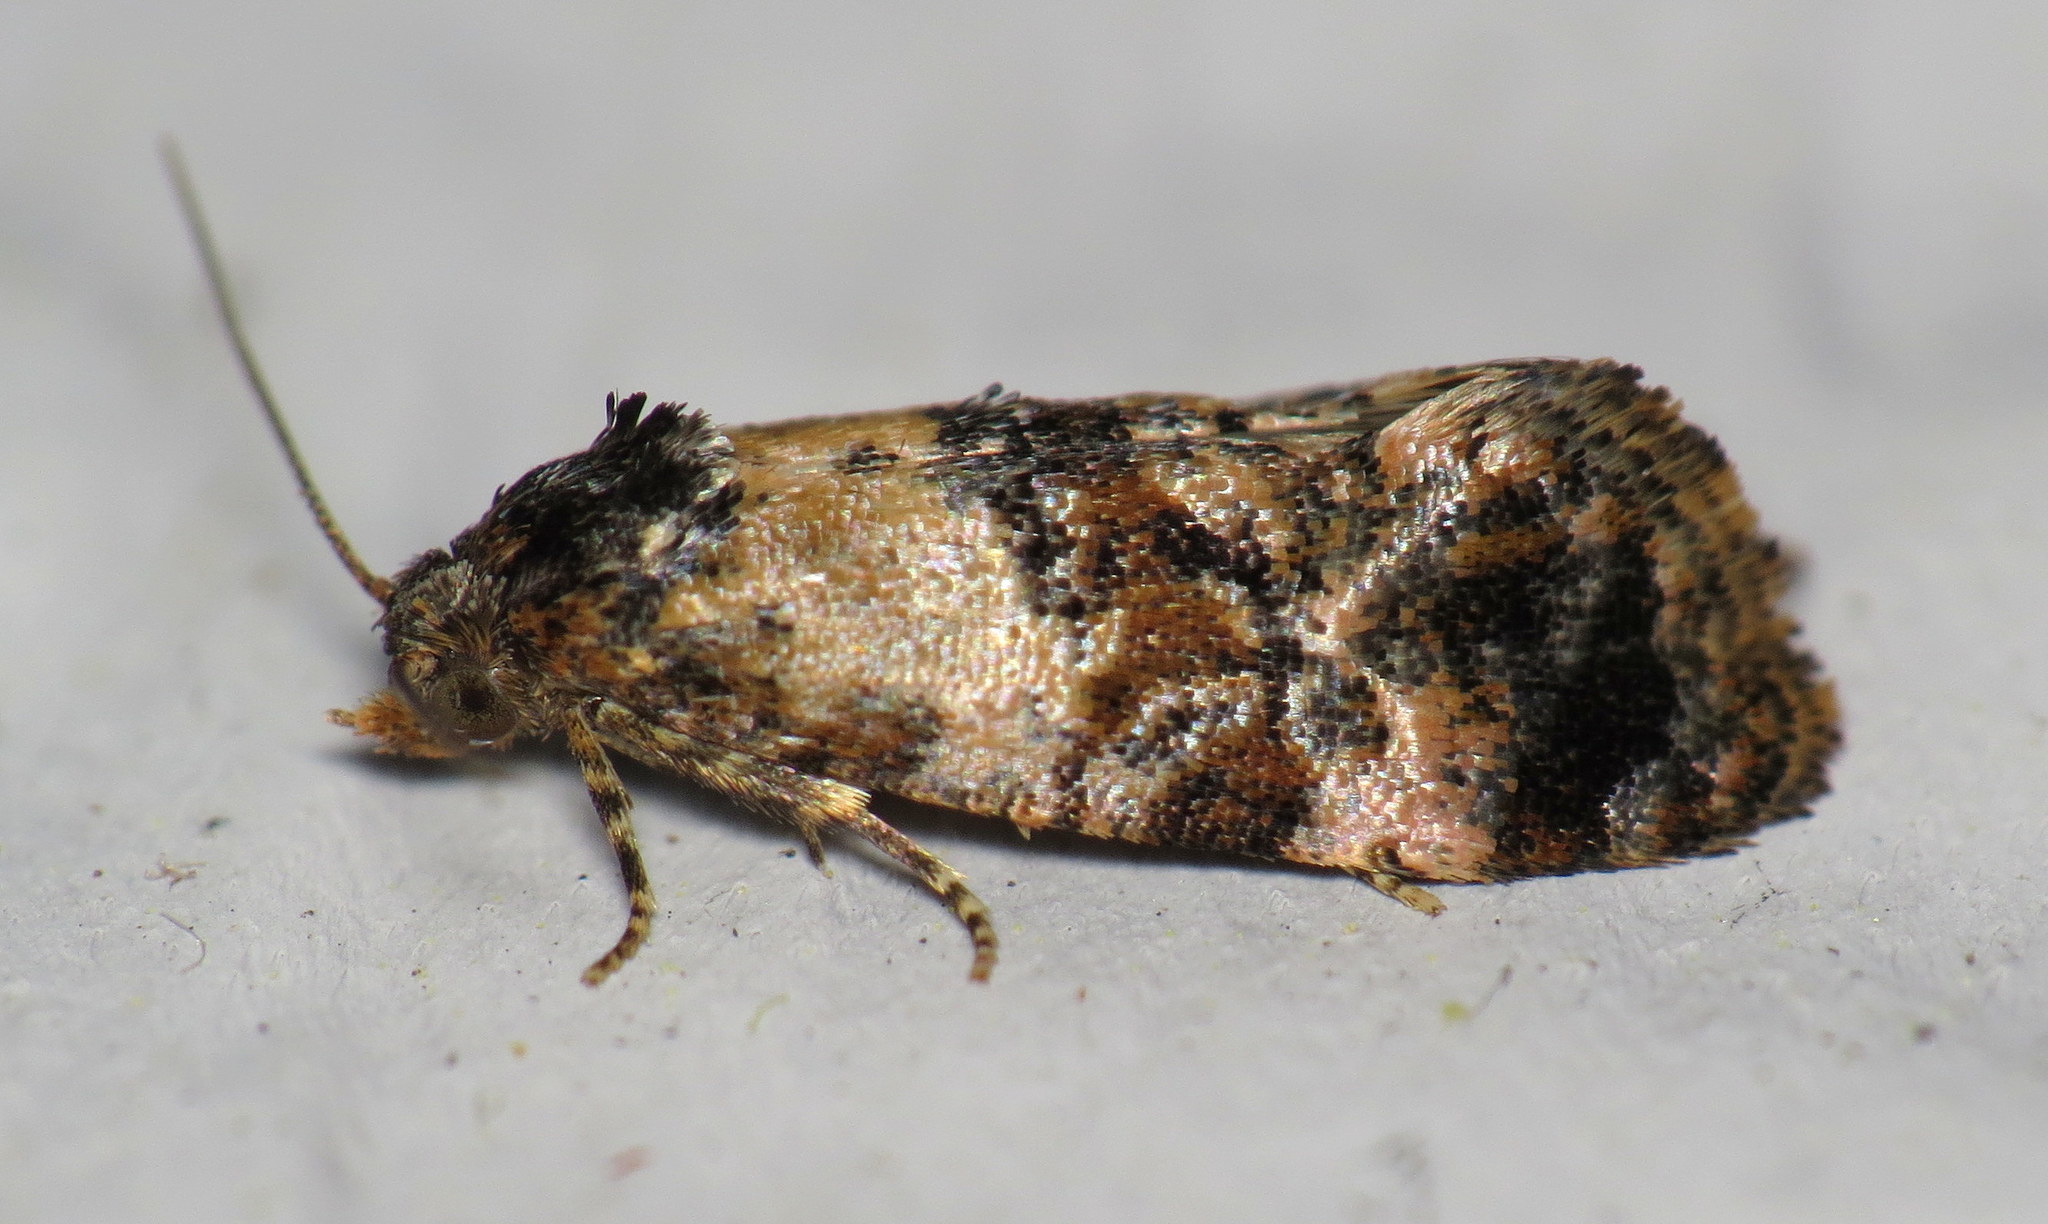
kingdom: Animalia
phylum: Arthropoda
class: Insecta
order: Lepidoptera
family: Tortricidae
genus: Cochylis
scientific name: Cochylis Cochylichroa hoffmanana
